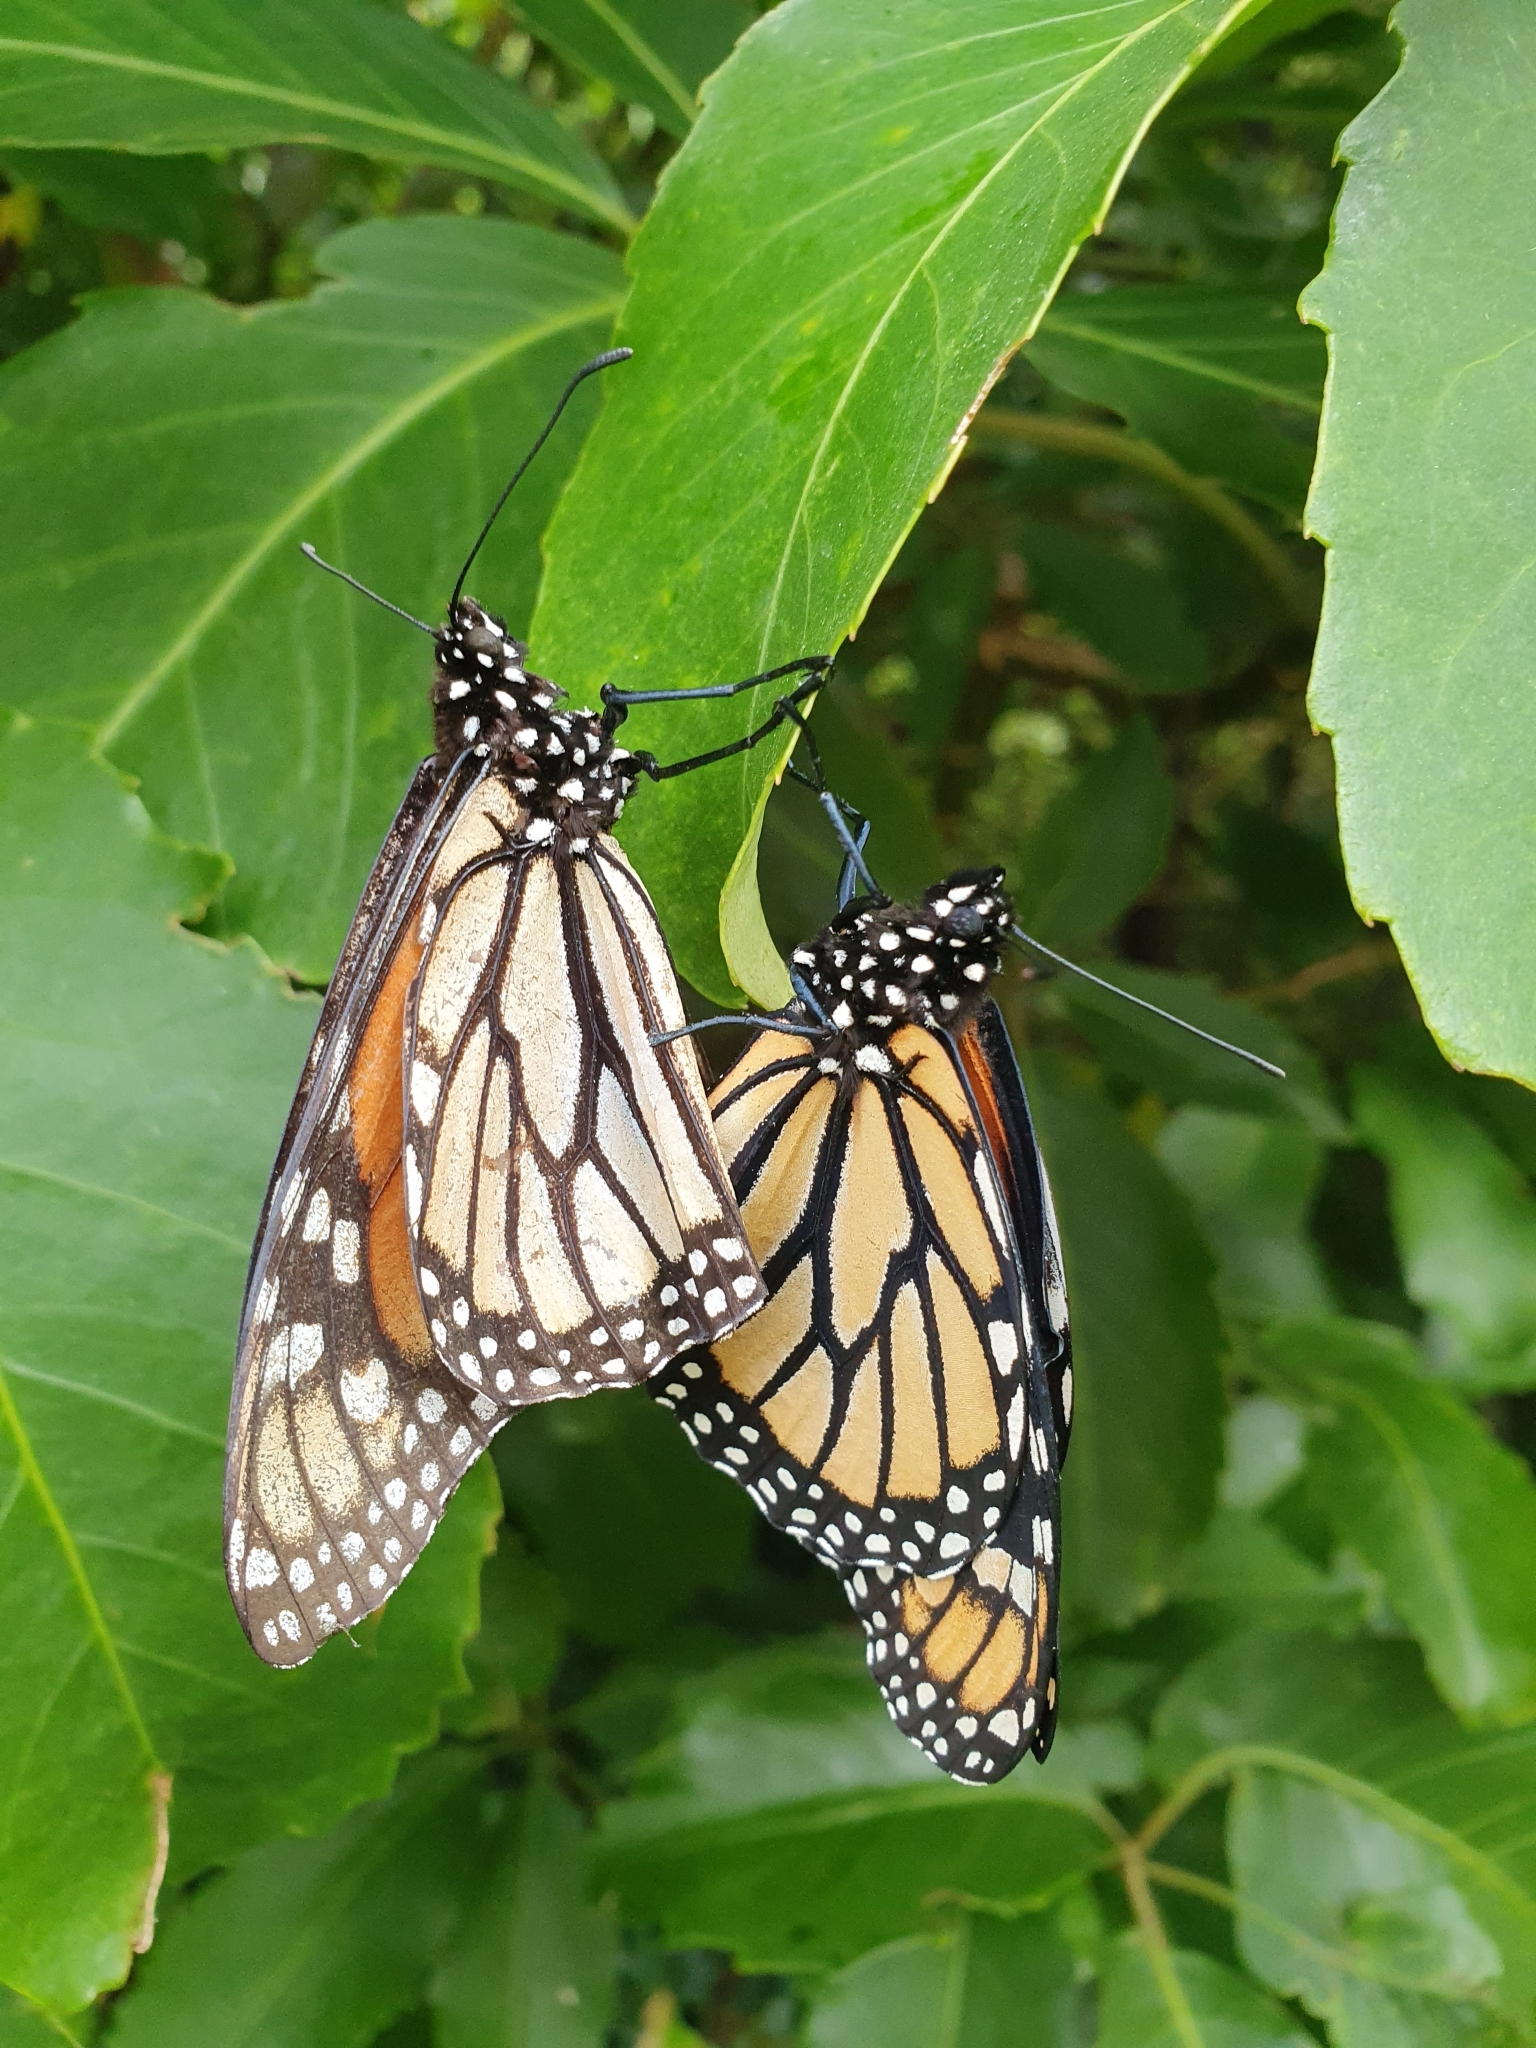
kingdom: Animalia
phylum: Arthropoda
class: Insecta
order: Lepidoptera
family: Nymphalidae
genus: Danaus
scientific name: Danaus plexippus
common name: Monarch
